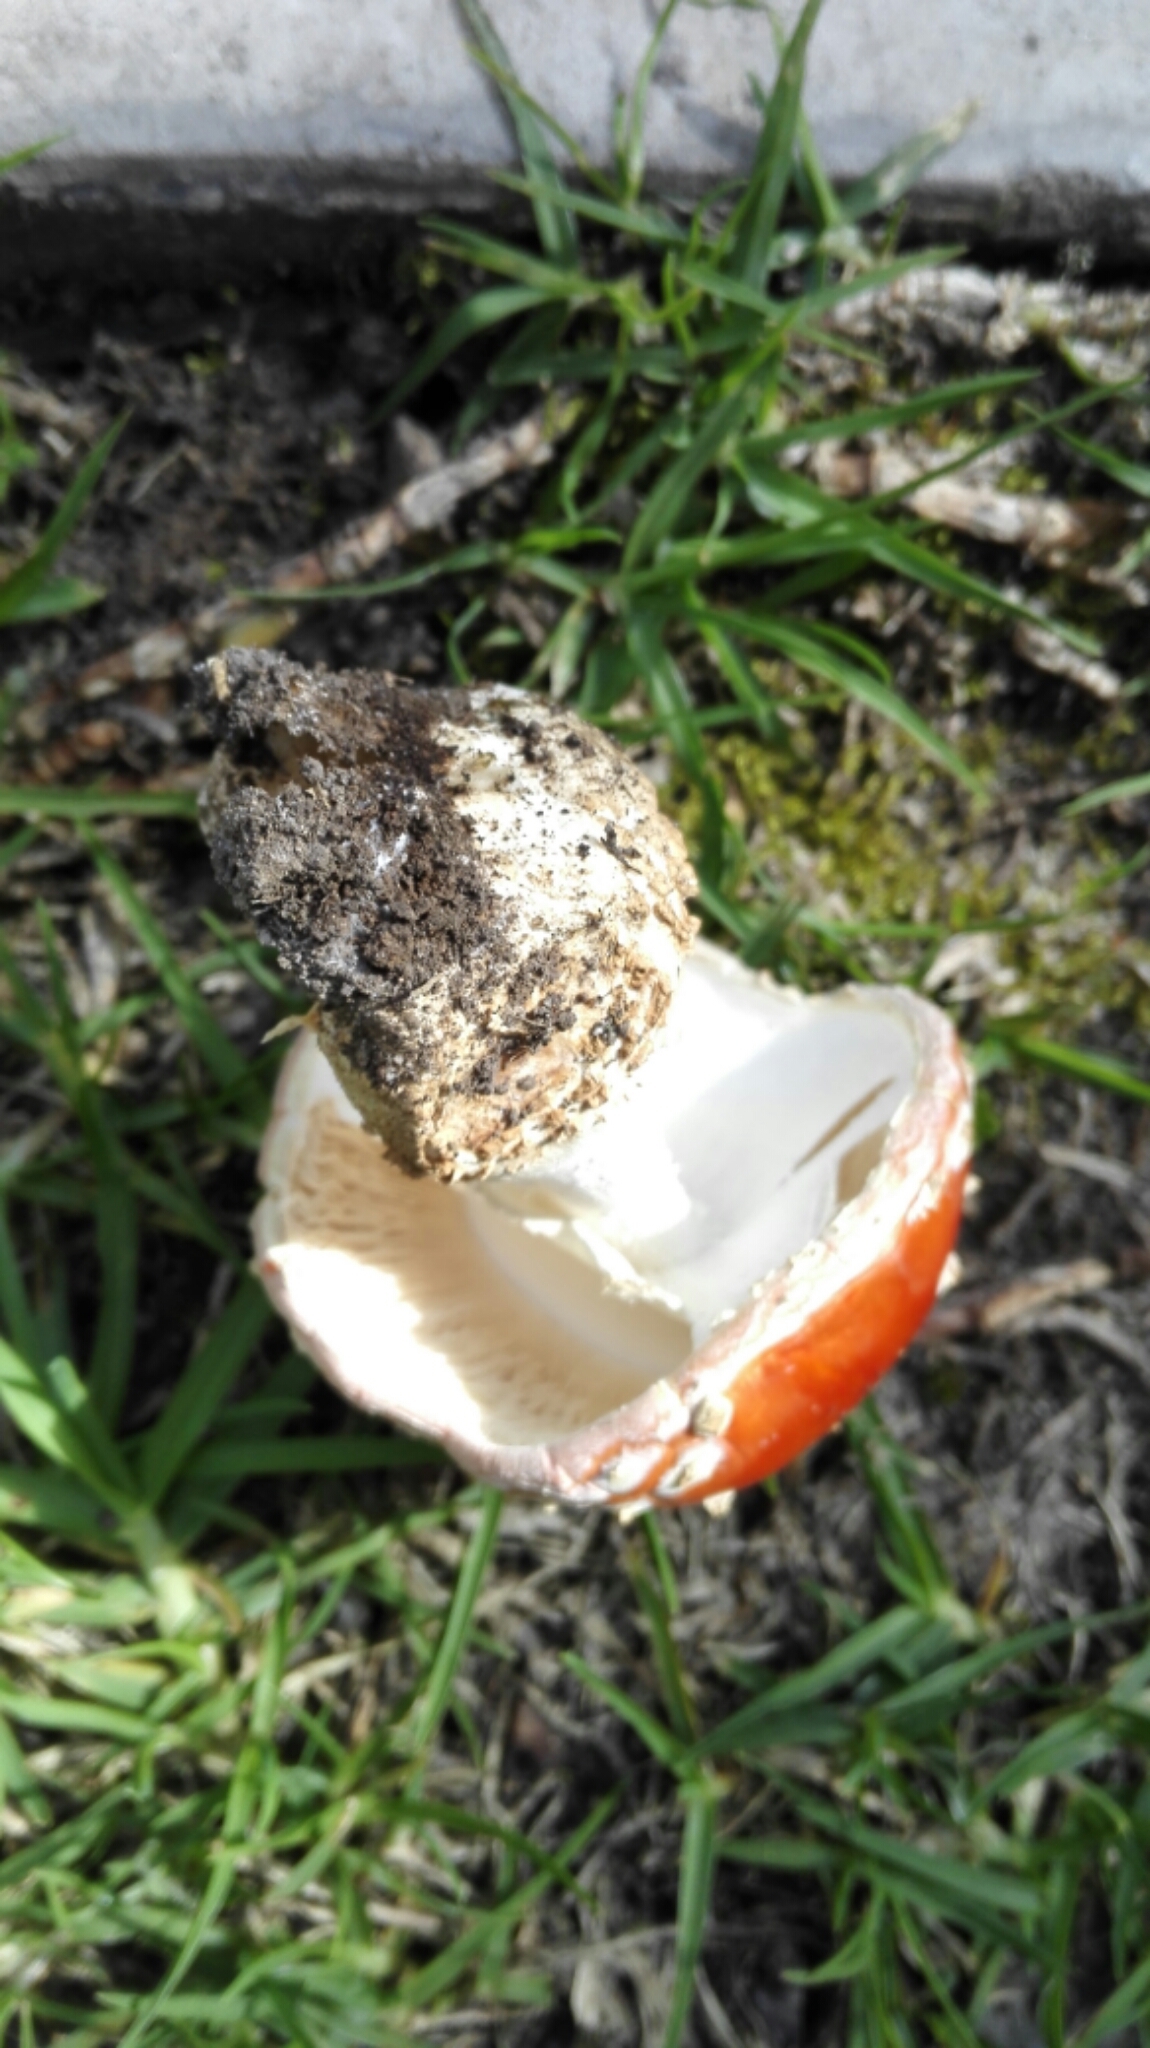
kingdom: Fungi
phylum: Basidiomycota
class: Agaricomycetes
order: Agaricales
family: Amanitaceae
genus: Amanita
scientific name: Amanita muscaria
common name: Fly agaric
